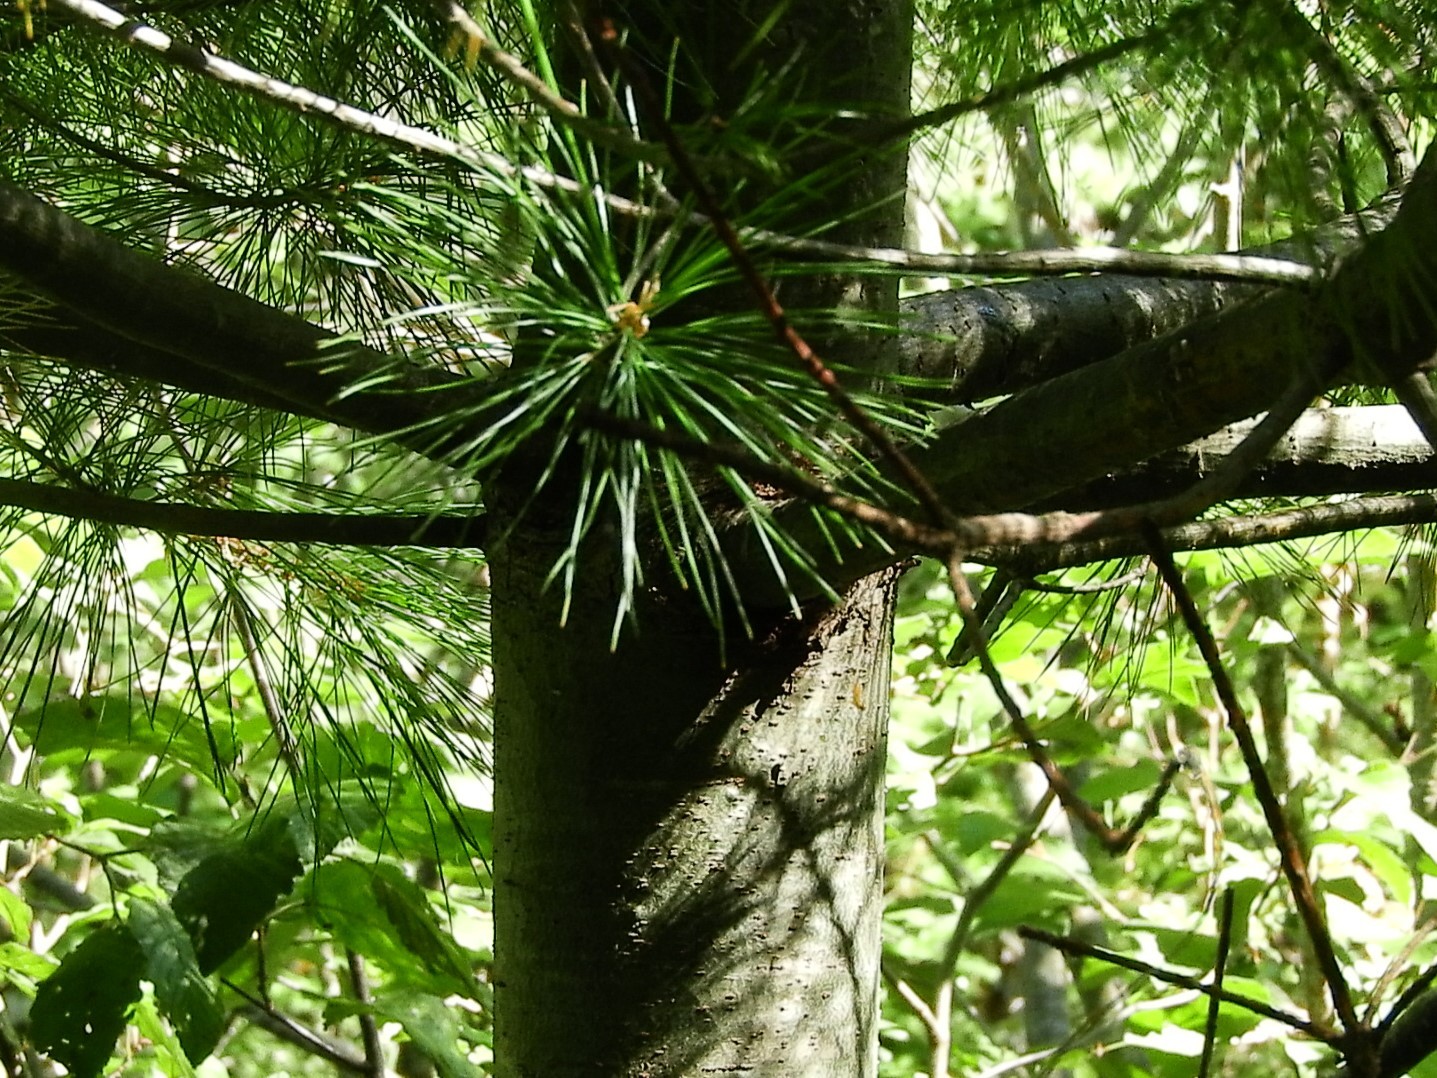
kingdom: Plantae
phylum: Tracheophyta
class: Pinopsida
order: Pinales
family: Pinaceae
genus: Pinus
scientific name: Pinus strobus
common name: Weymouth pine
